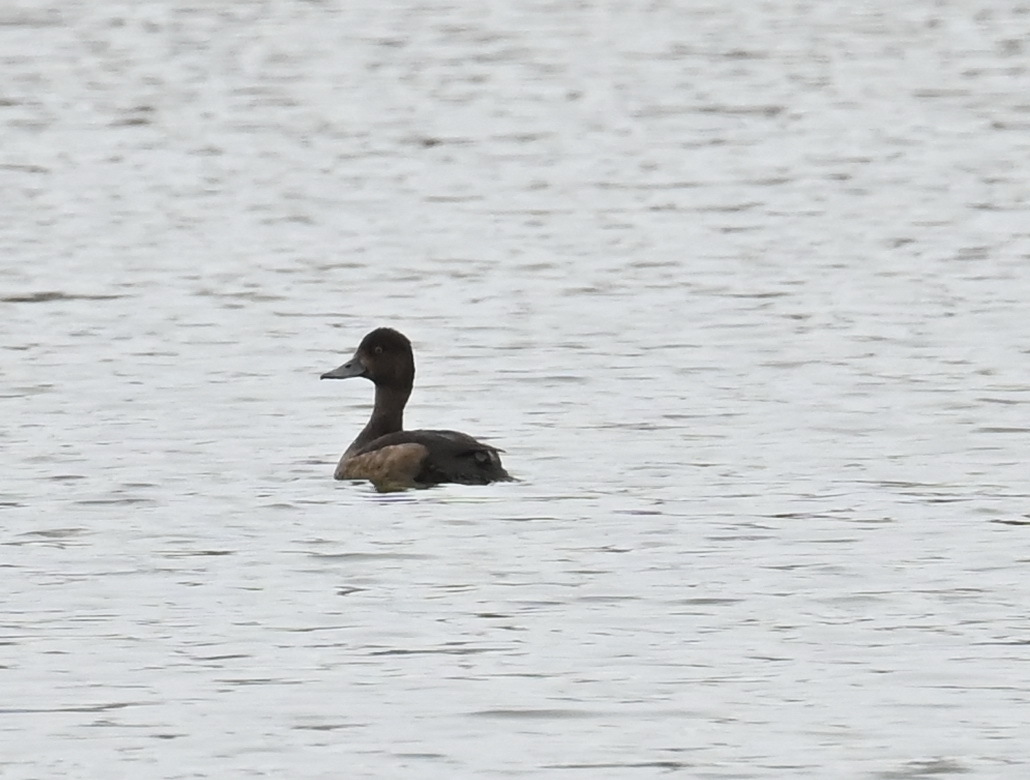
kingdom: Animalia
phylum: Chordata
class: Aves
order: Anseriformes
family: Anatidae
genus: Aythya
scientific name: Aythya fuligula
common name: Tufted duck
